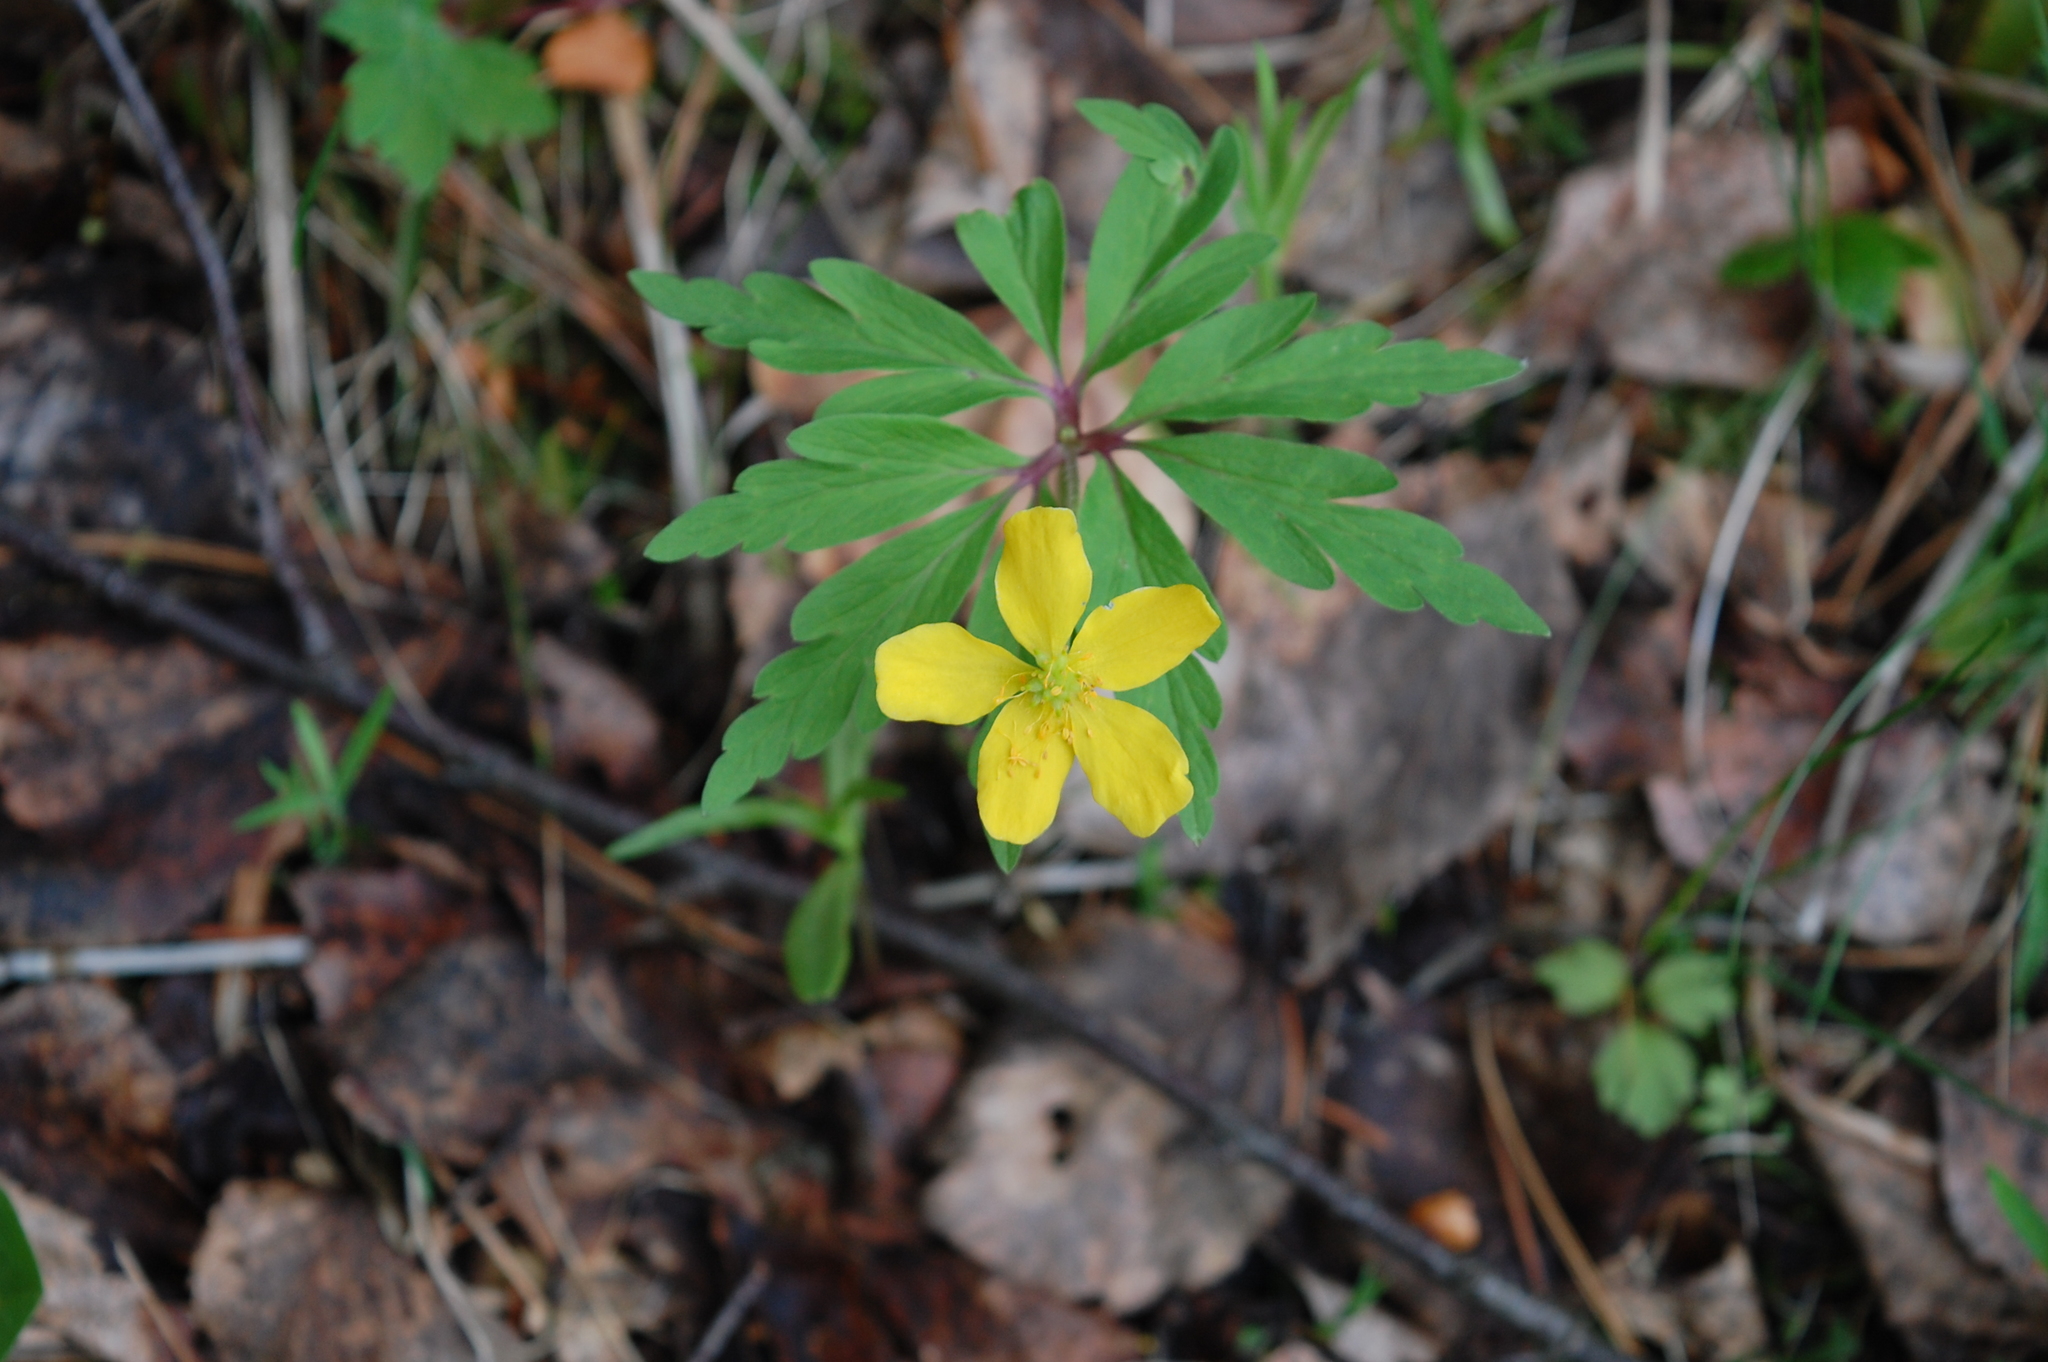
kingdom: Plantae
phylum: Tracheophyta
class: Magnoliopsida
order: Ranunculales
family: Ranunculaceae
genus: Anemone
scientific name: Anemone ranunculoides
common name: Yellow anemone
